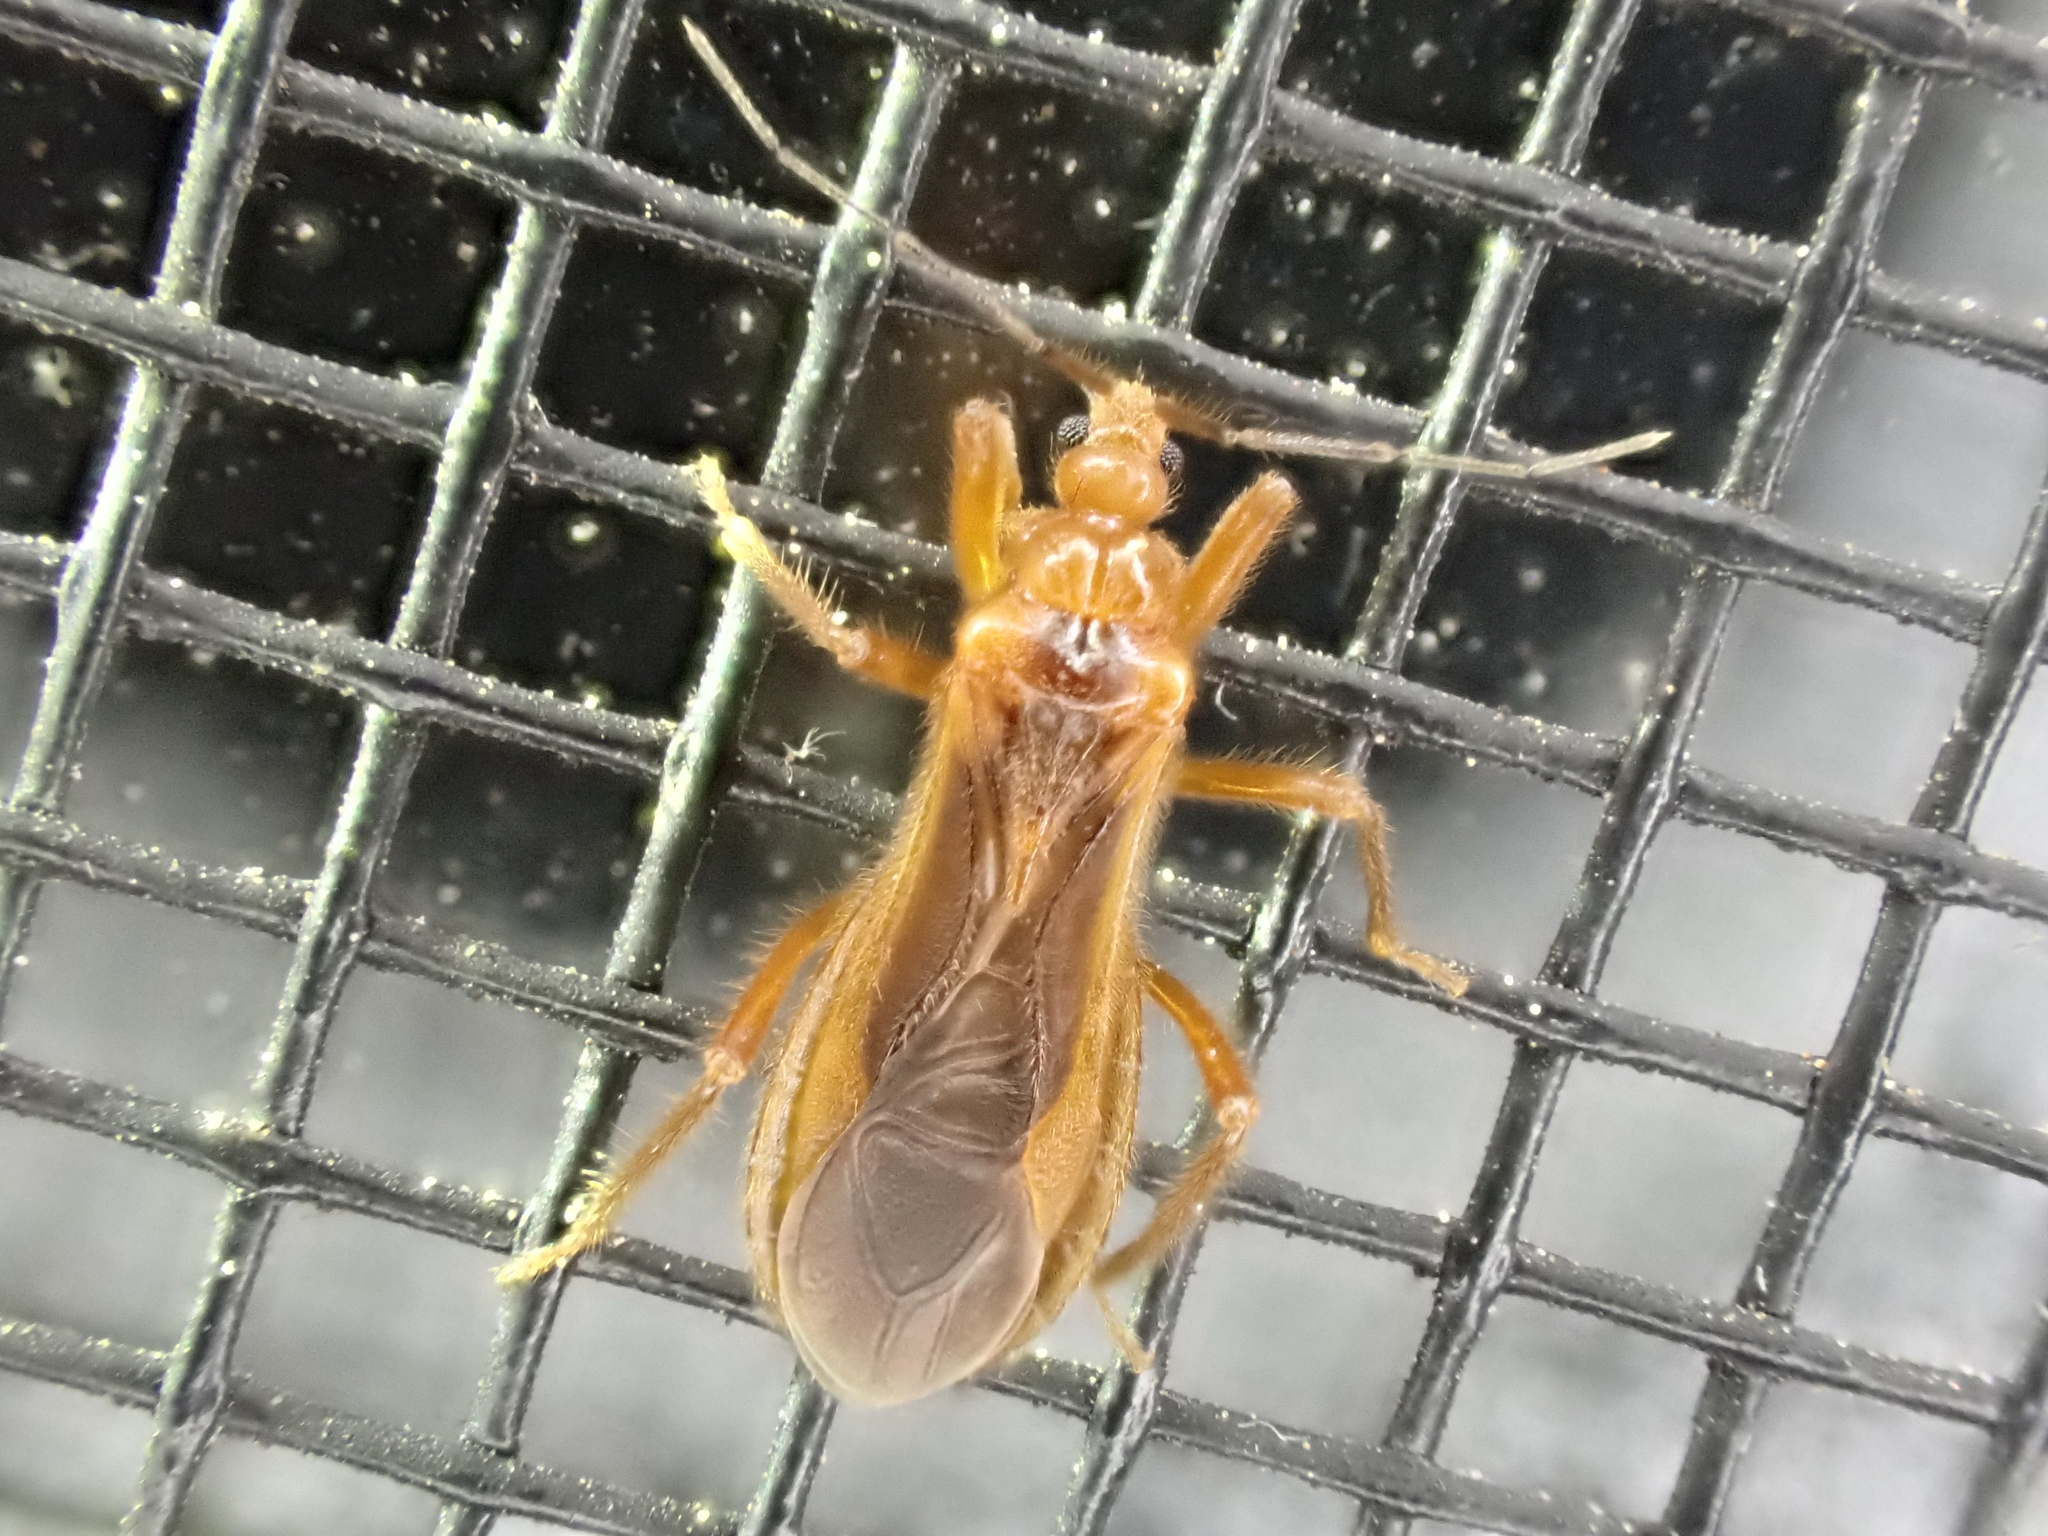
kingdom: Animalia
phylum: Arthropoda
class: Insecta
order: Hemiptera
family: Reduviidae
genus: Oncerotrachelus
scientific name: Oncerotrachelus acuminatus
